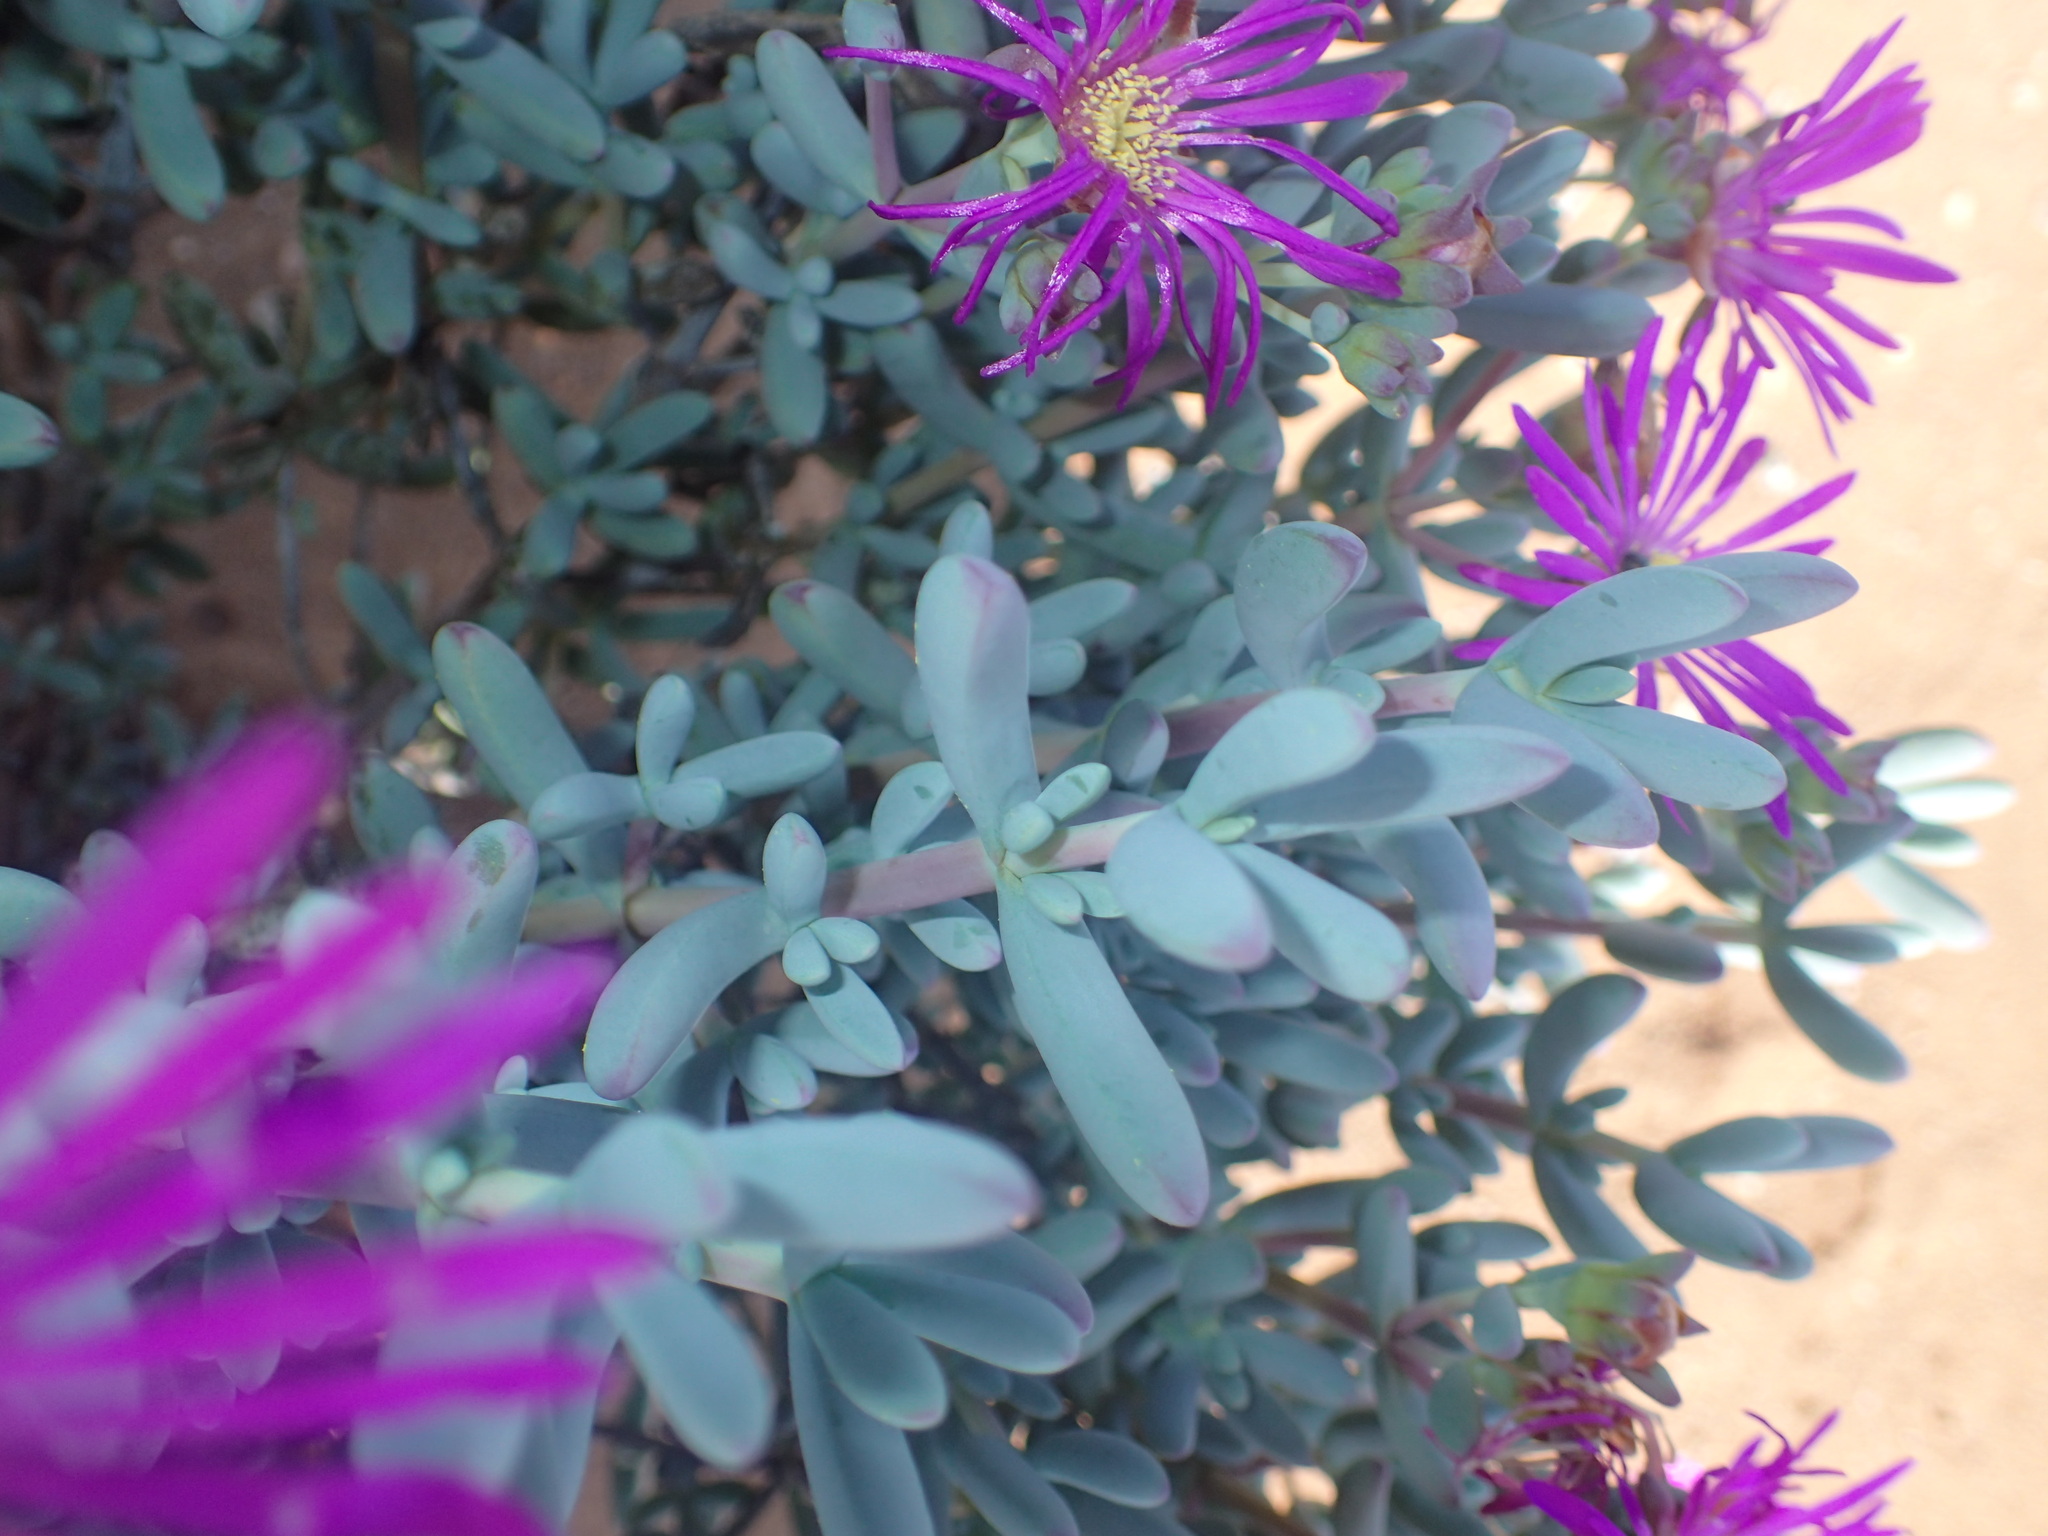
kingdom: Plantae
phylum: Tracheophyta
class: Magnoliopsida
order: Caryophyllales
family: Aizoaceae
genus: Lampranthus
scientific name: Lampranthus otzenianus
